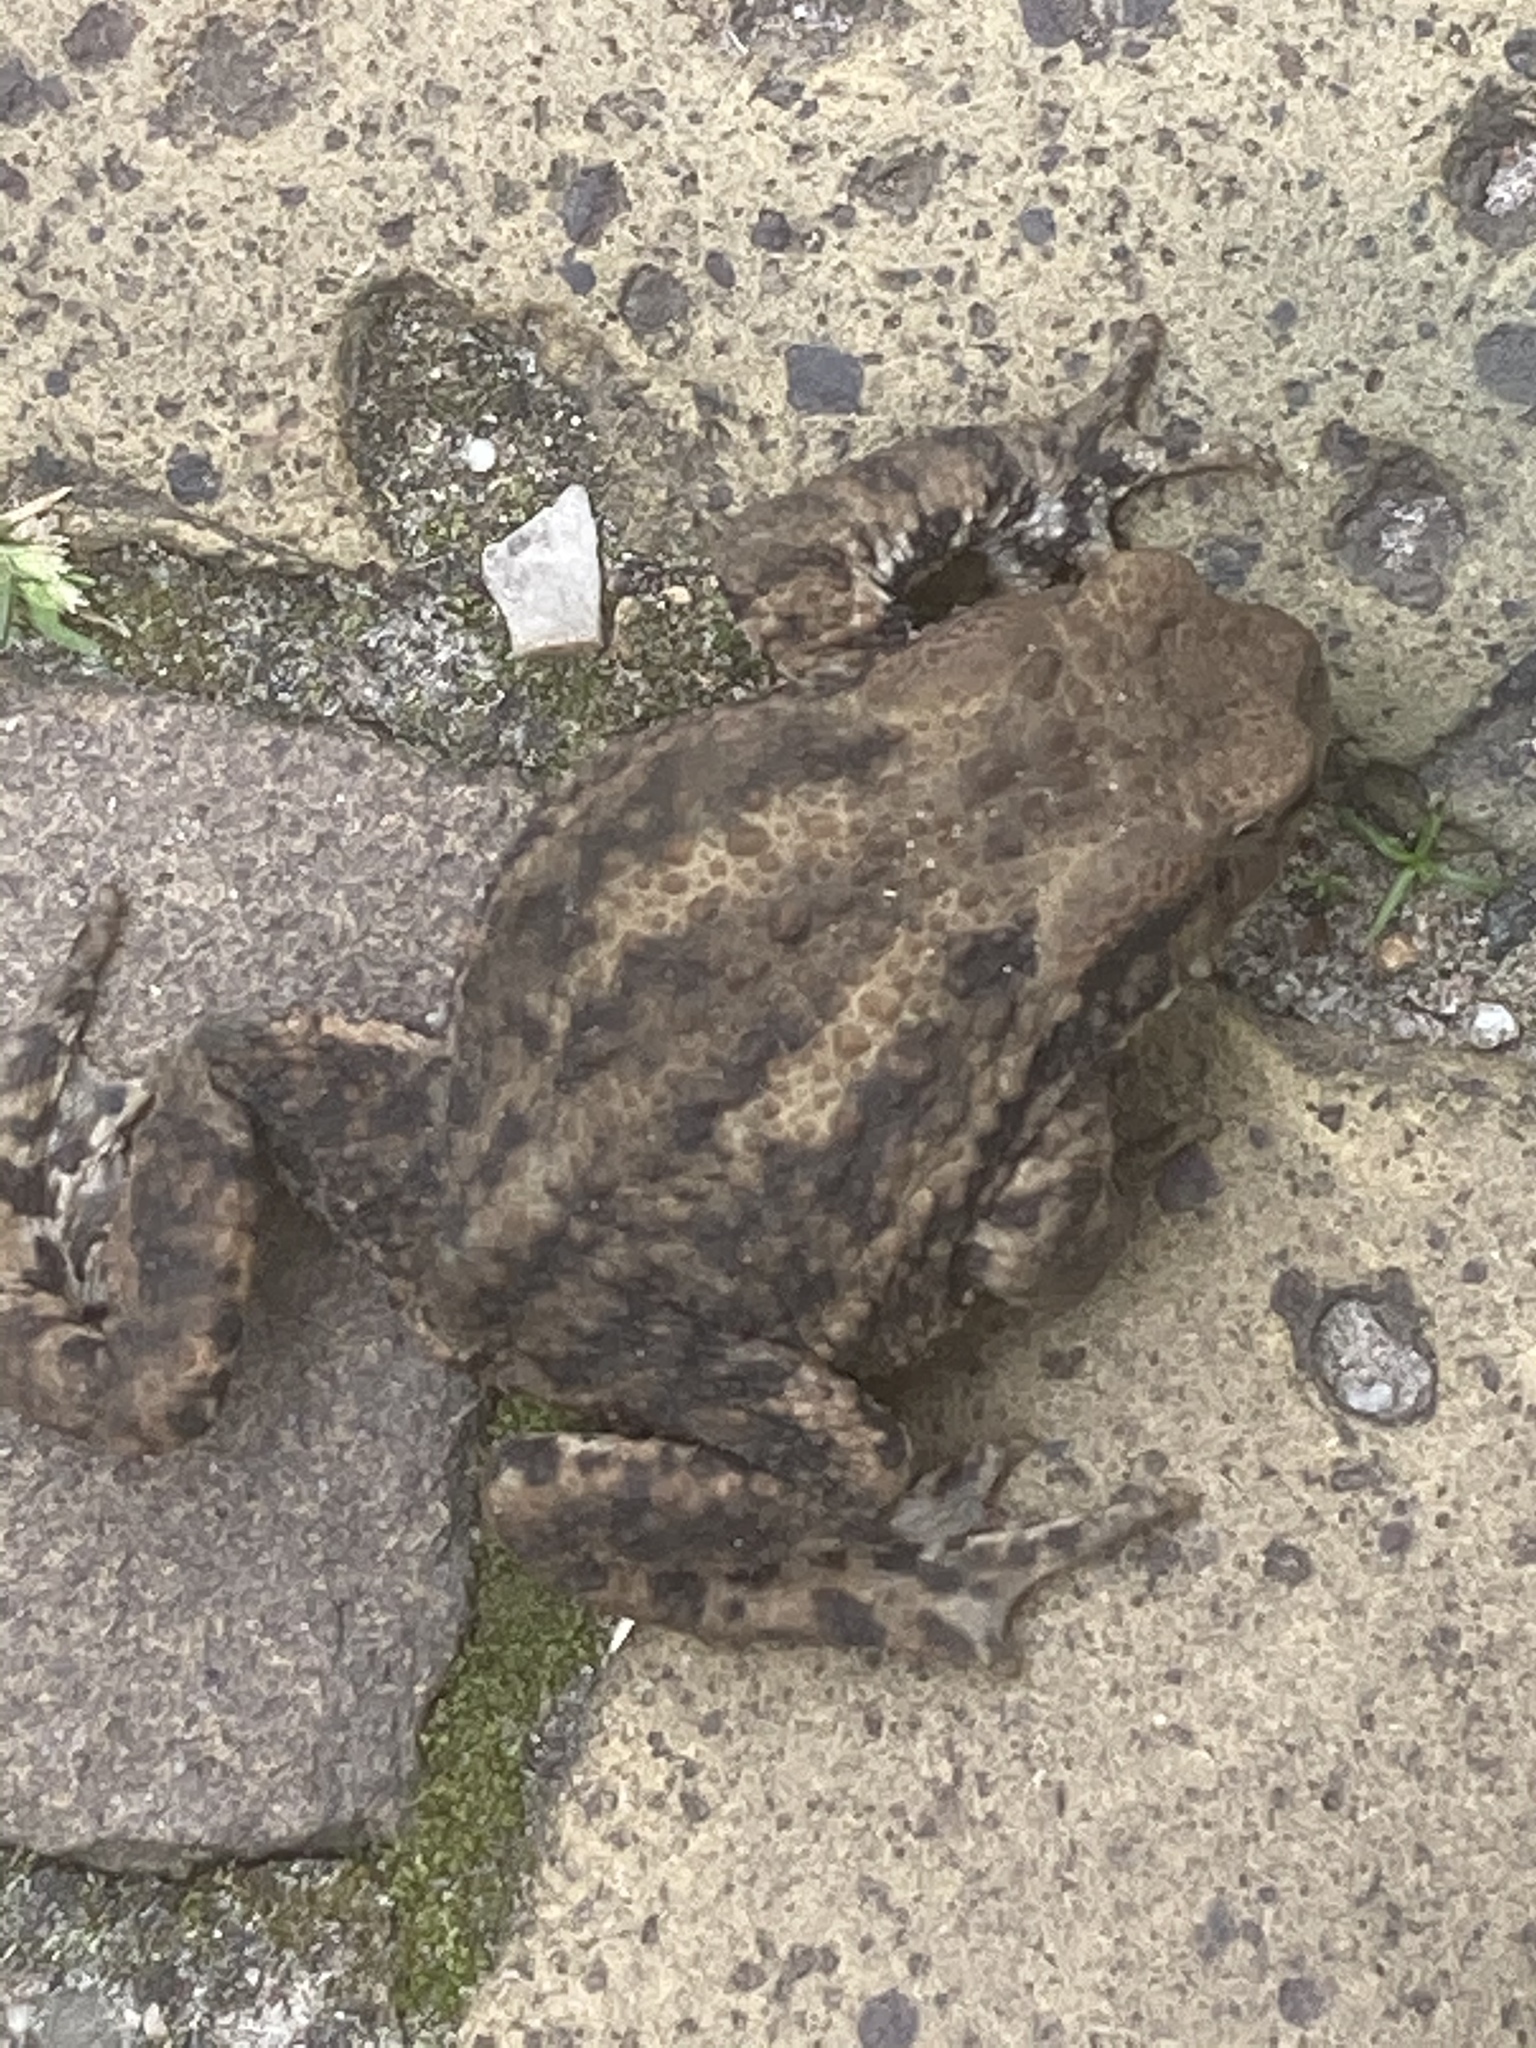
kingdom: Animalia
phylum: Chordata
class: Amphibia
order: Anura
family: Bufonidae
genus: Bufo
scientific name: Bufo bufo
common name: Common toad
